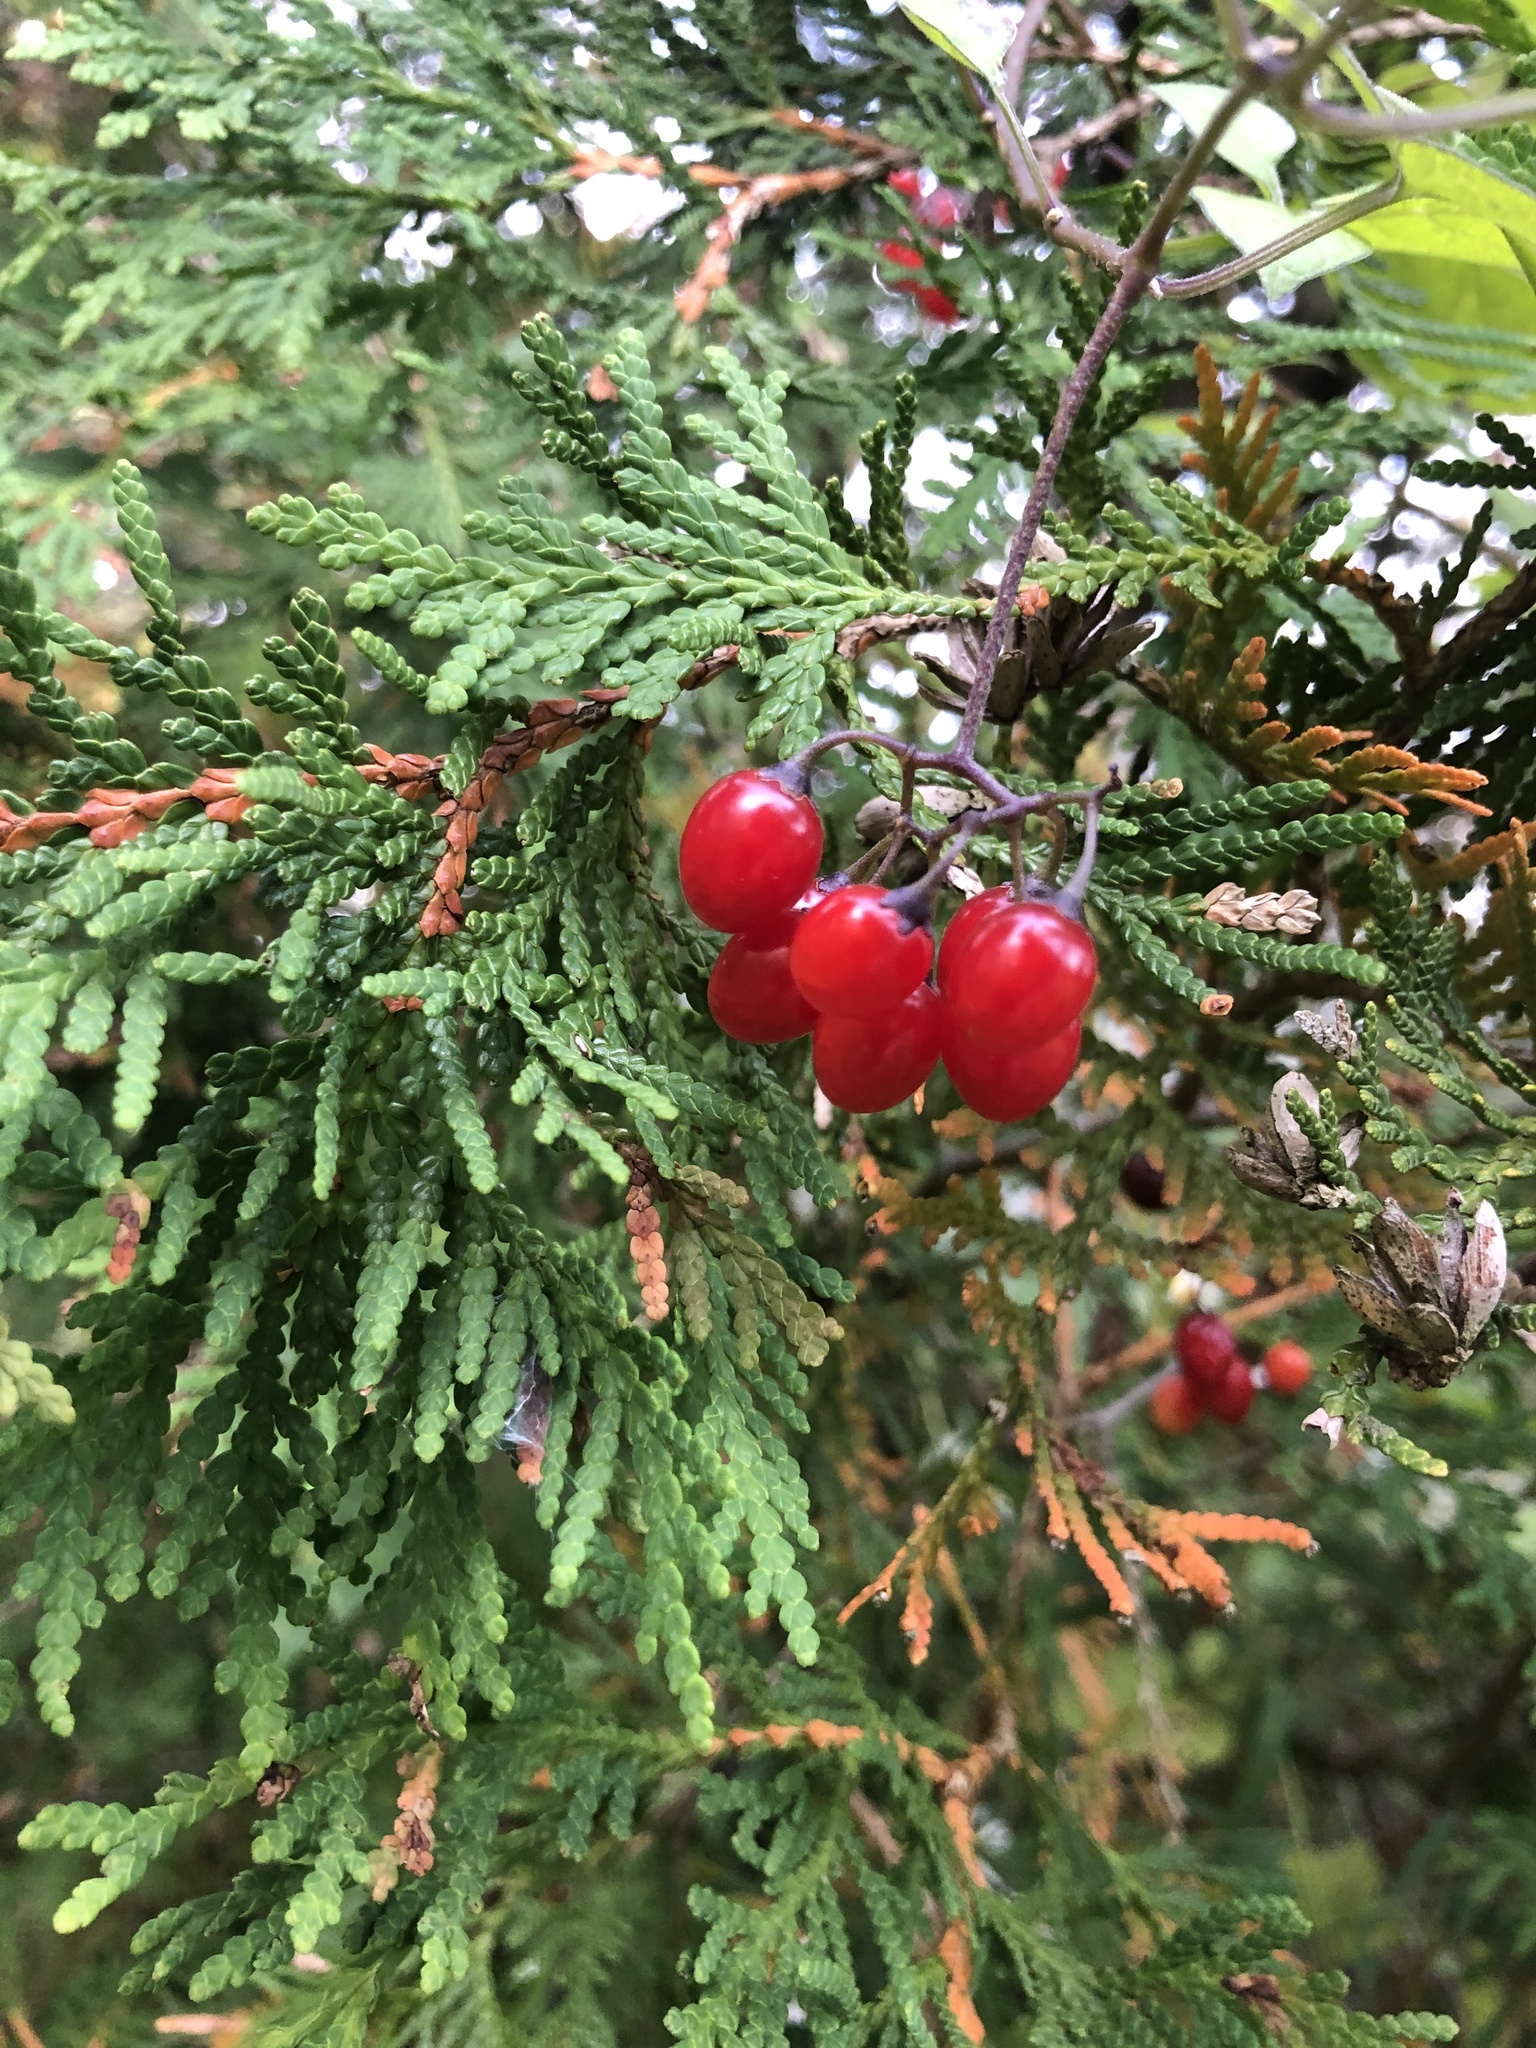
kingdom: Plantae
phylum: Tracheophyta
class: Magnoliopsida
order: Solanales
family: Solanaceae
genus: Solanum
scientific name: Solanum dulcamara
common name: Climbing nightshade
